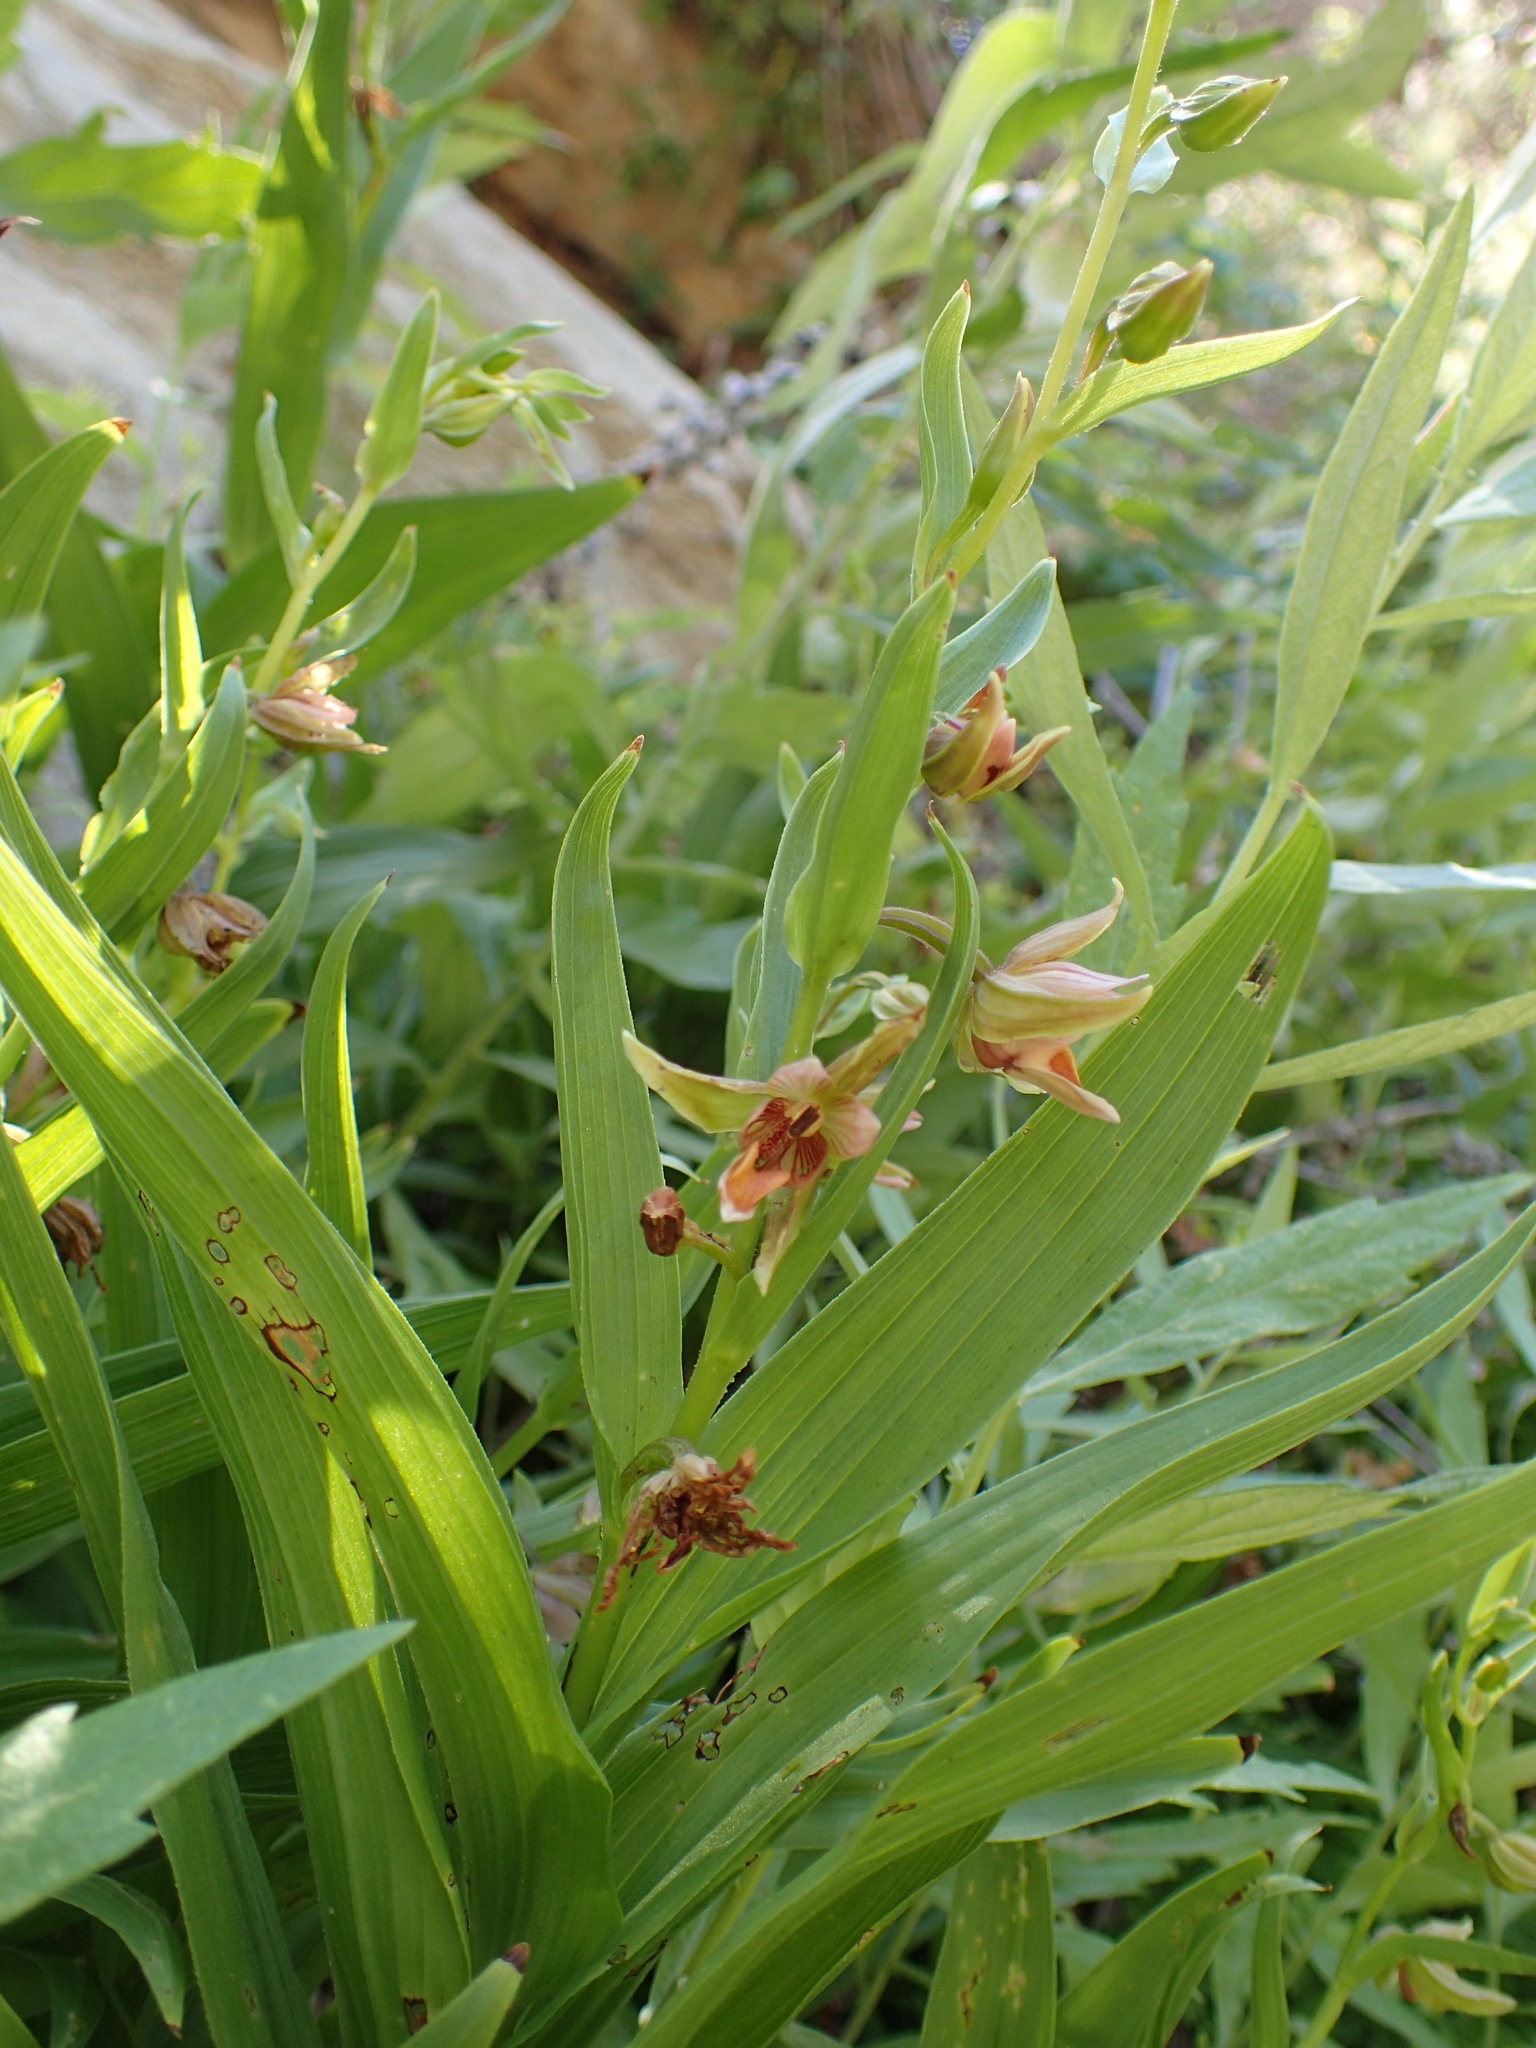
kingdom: Plantae
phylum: Tracheophyta
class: Liliopsida
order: Asparagales
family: Orchidaceae
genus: Epipactis
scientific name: Epipactis gigantea
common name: Chatterbox
